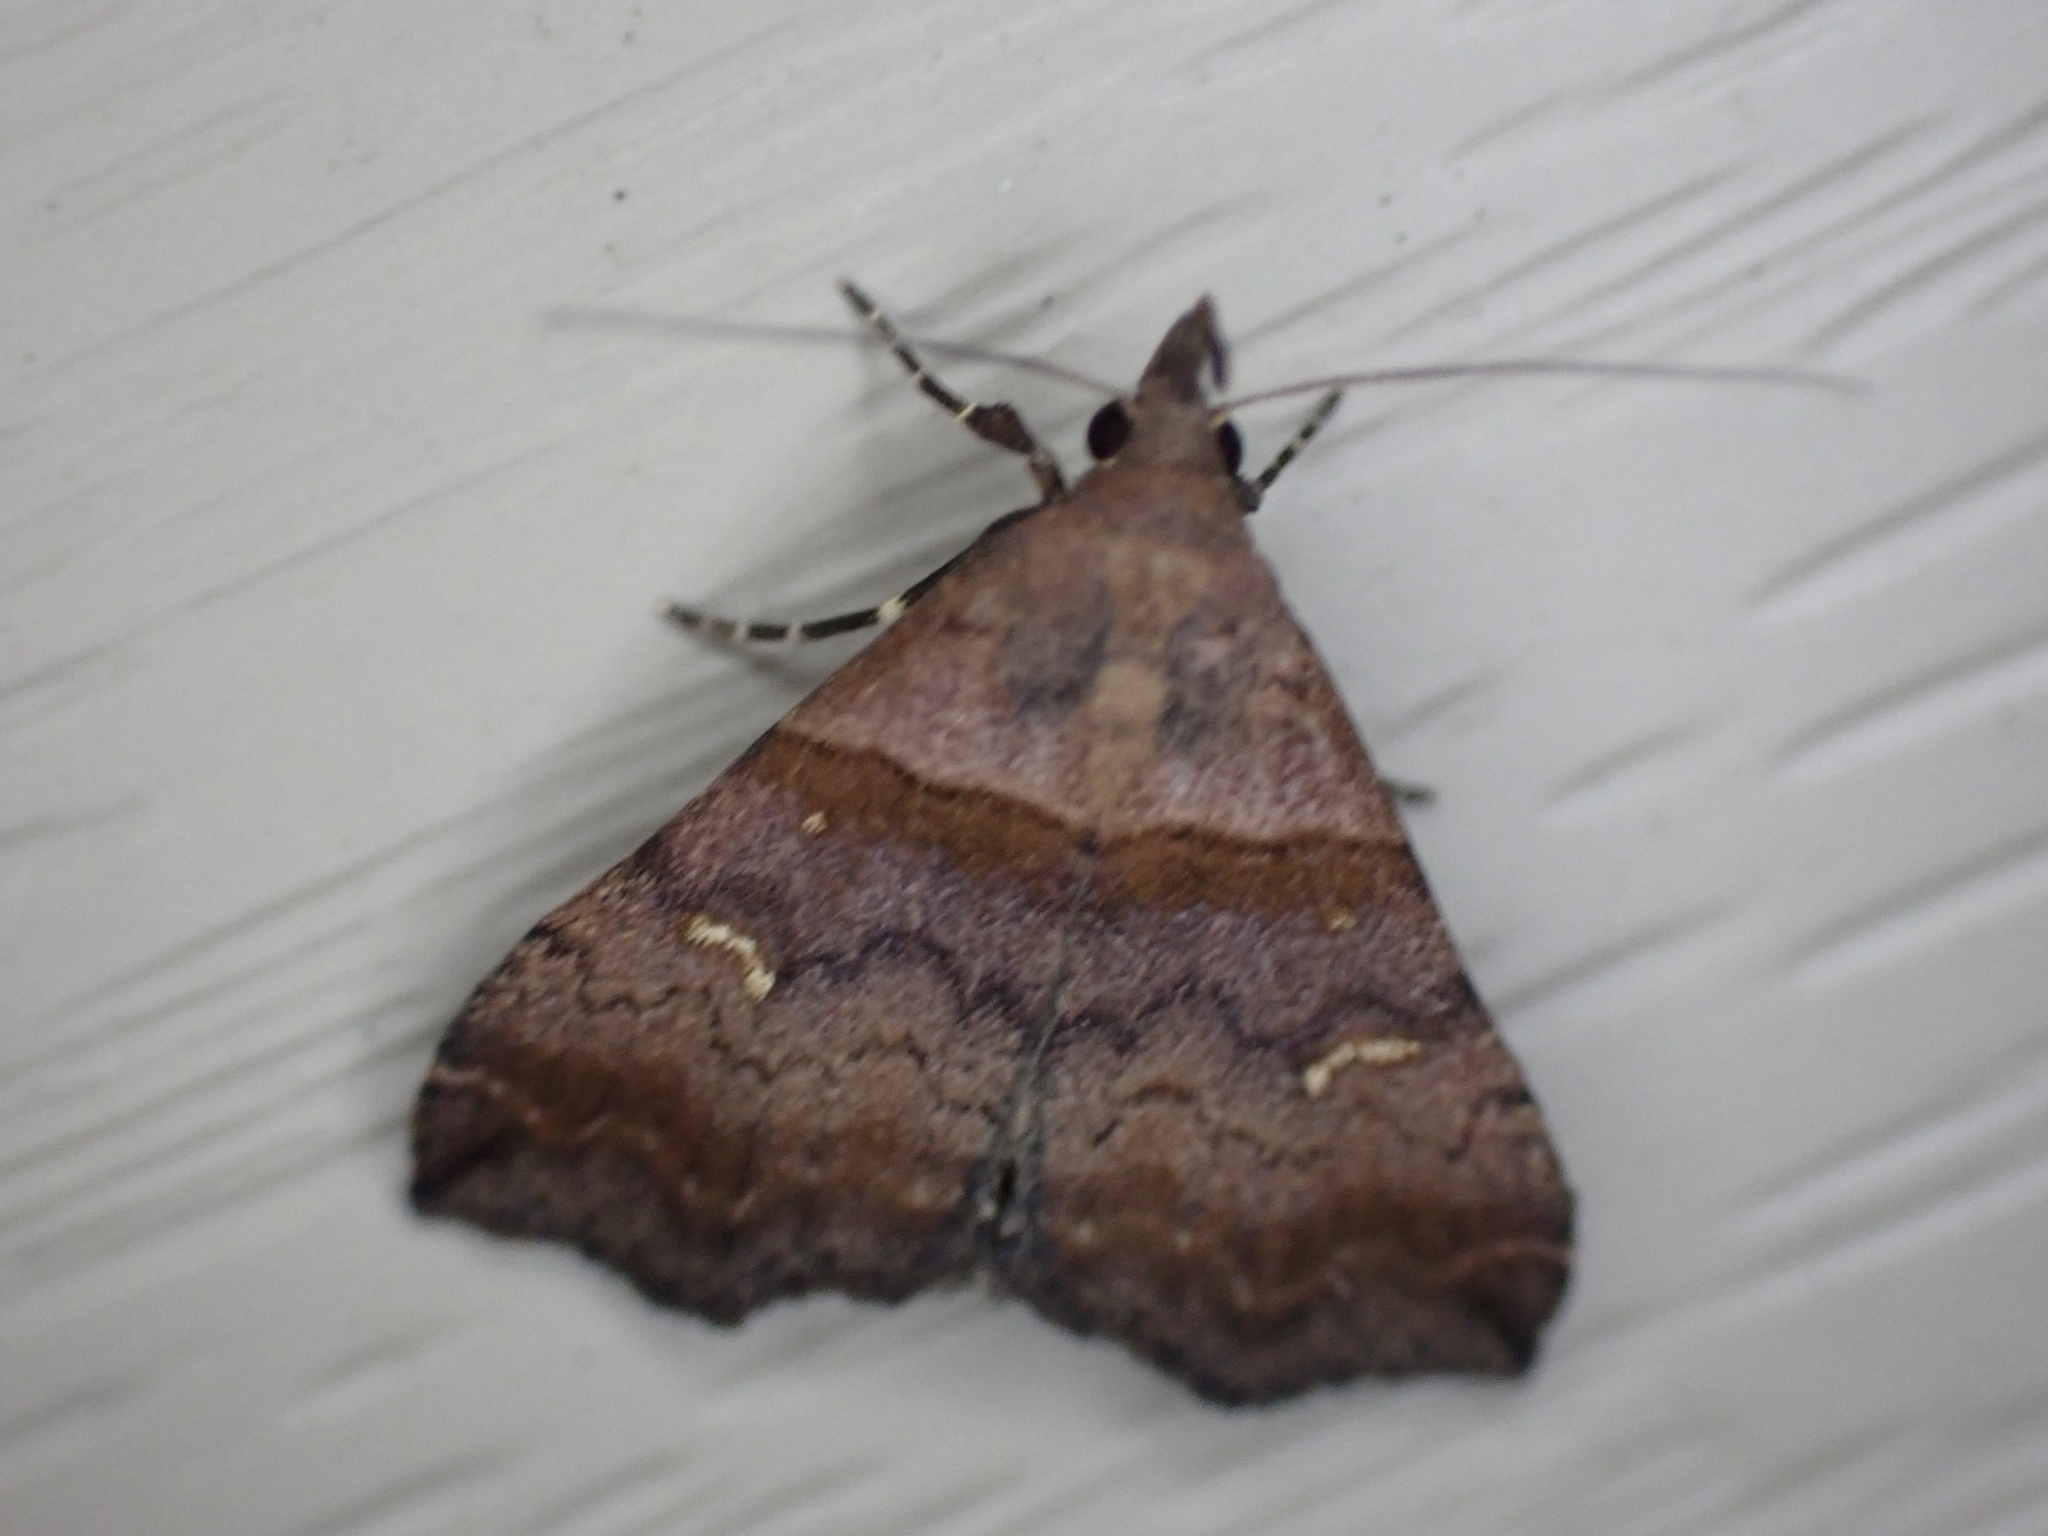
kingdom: Animalia
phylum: Arthropoda
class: Insecta
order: Lepidoptera
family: Erebidae
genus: Lascoria
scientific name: Lascoria ambigualis
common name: Ambiguous moth
